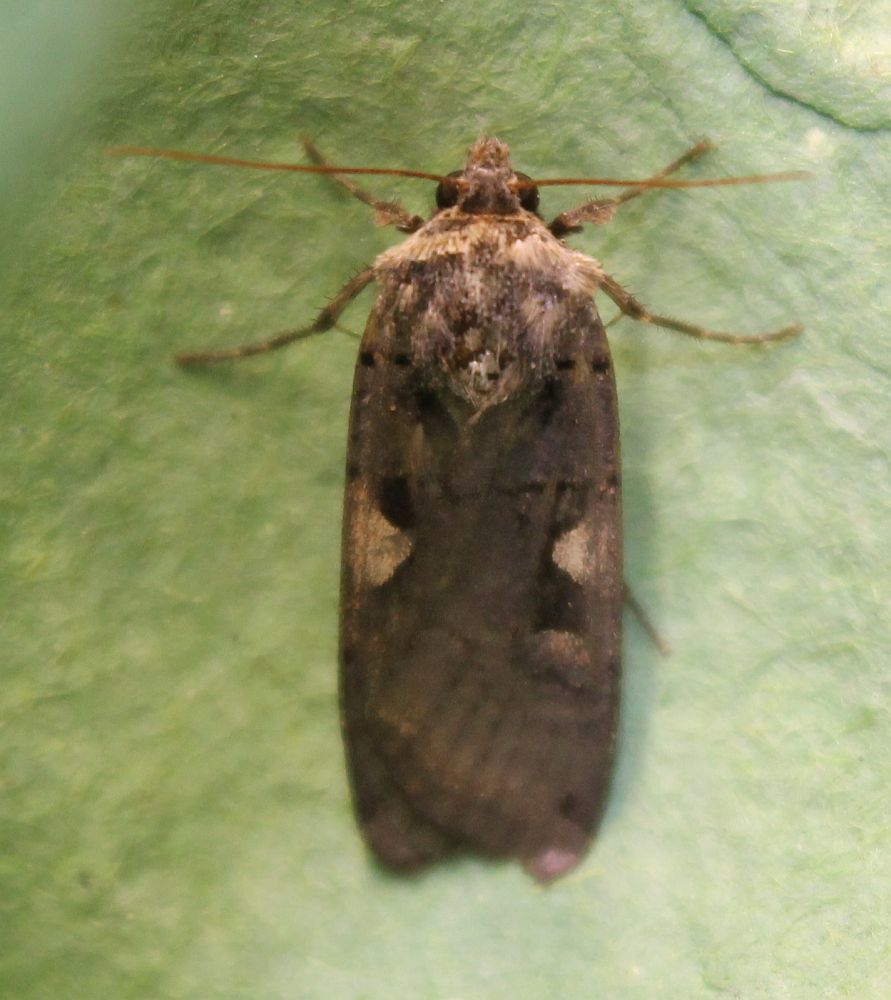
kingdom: Animalia
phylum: Arthropoda
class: Insecta
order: Lepidoptera
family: Noctuidae
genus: Xestia
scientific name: Xestia c-nigrum
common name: Setaceous hebrew character
